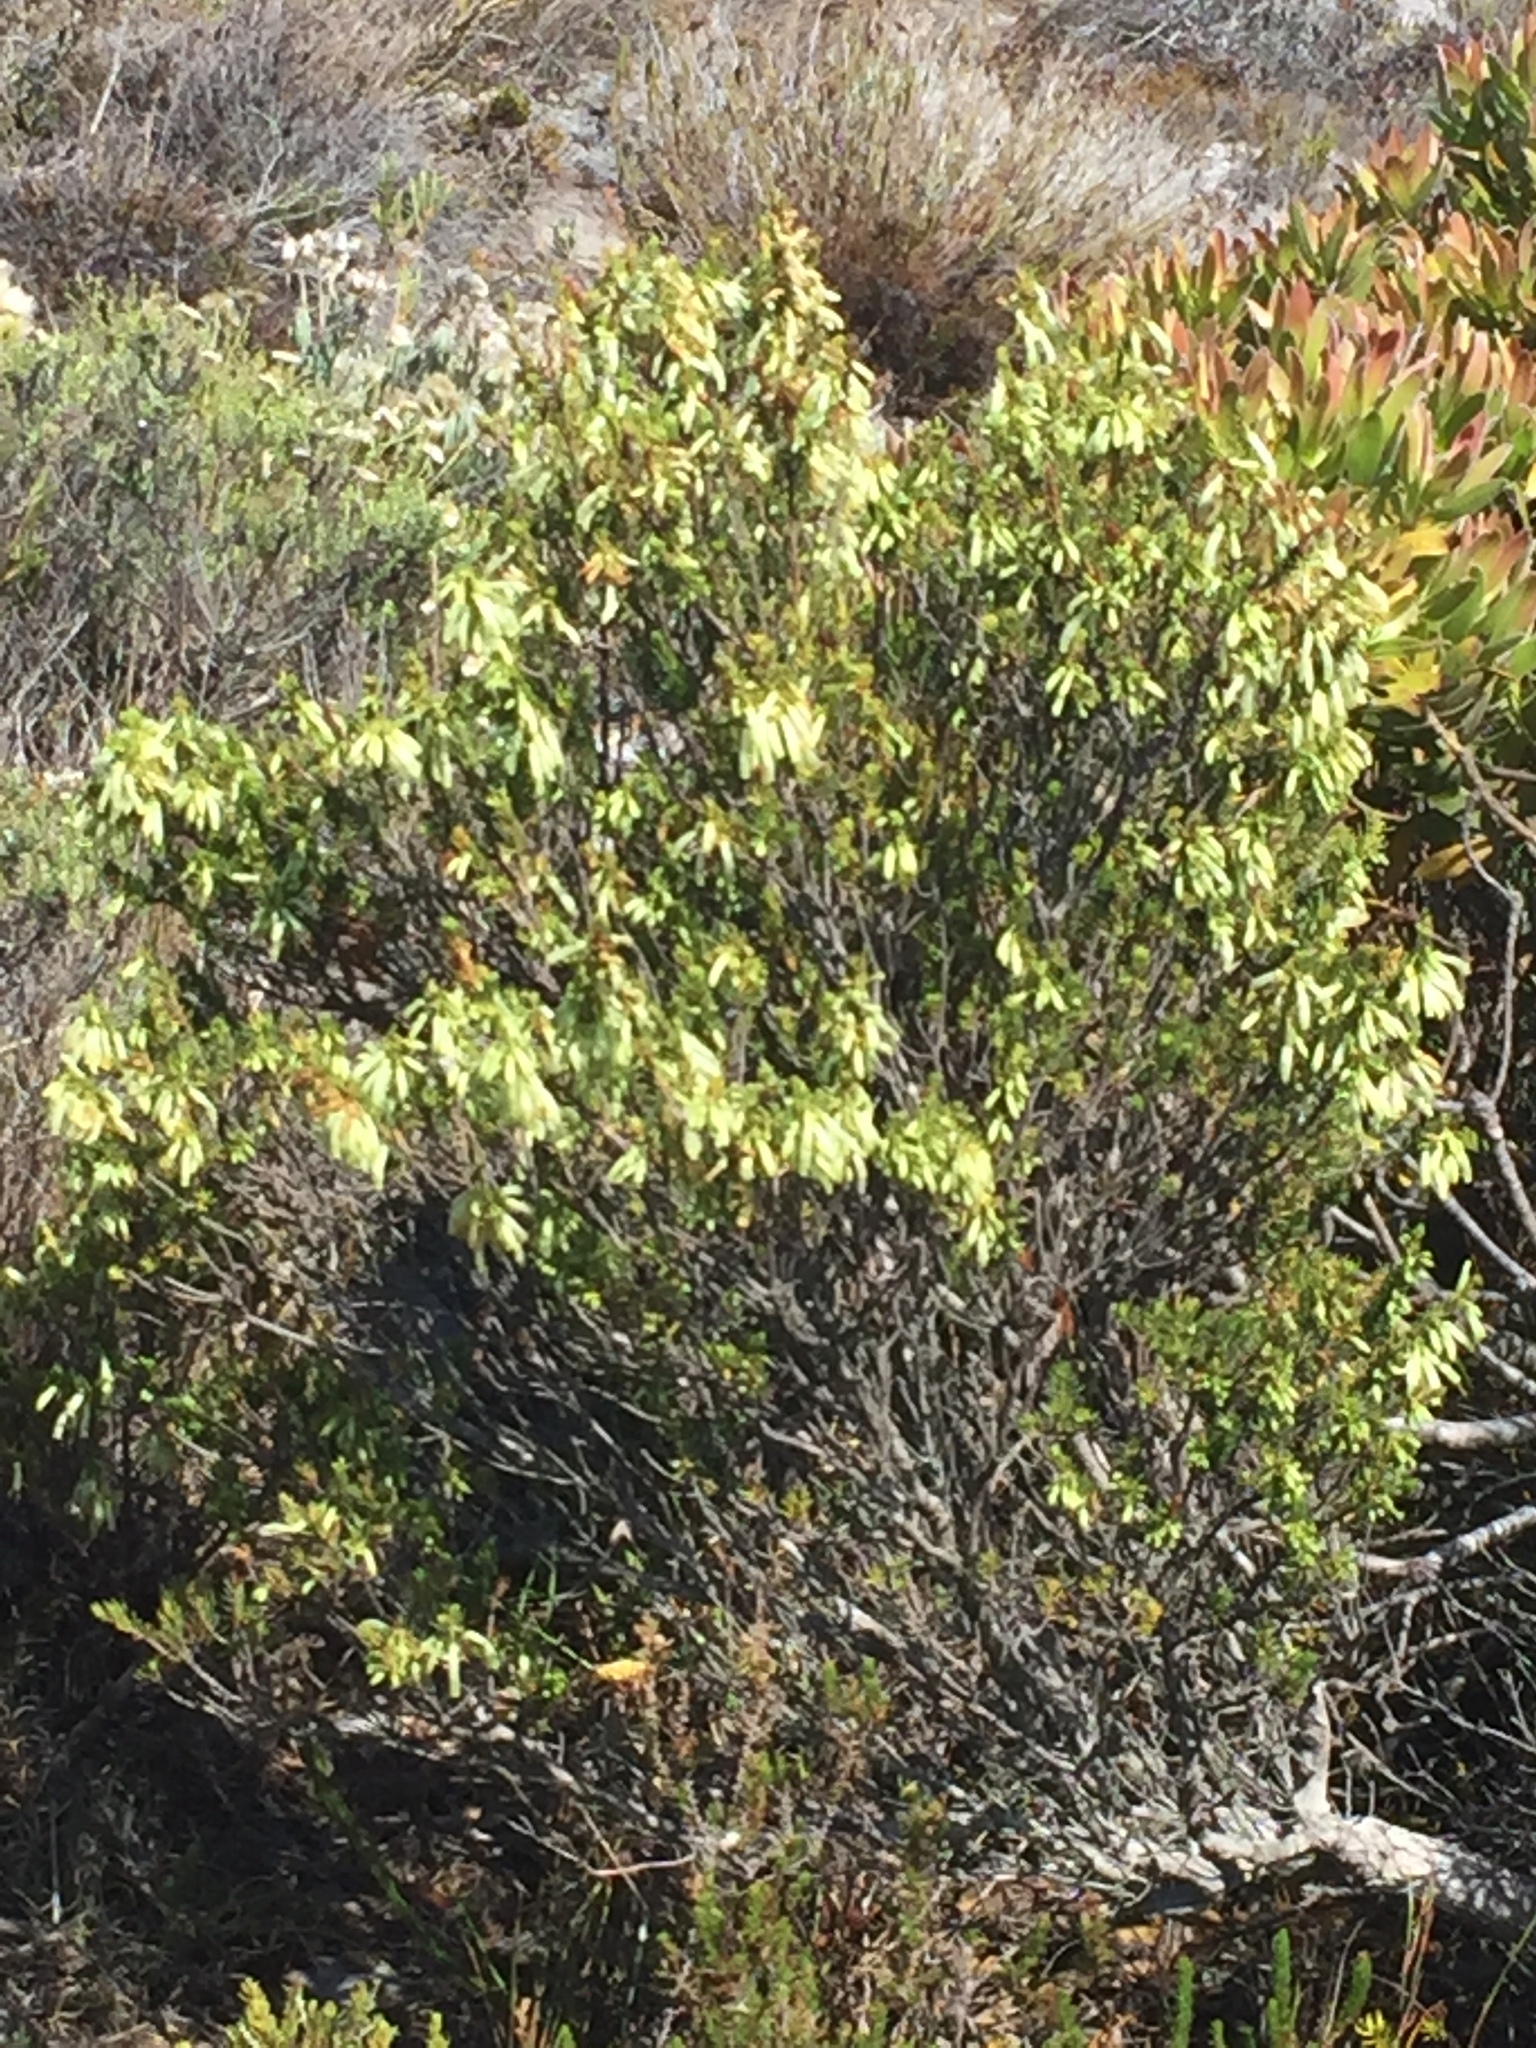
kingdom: Plantae
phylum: Tracheophyta
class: Magnoliopsida
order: Ericales
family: Ericaceae
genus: Erica
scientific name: Erica mammosa
